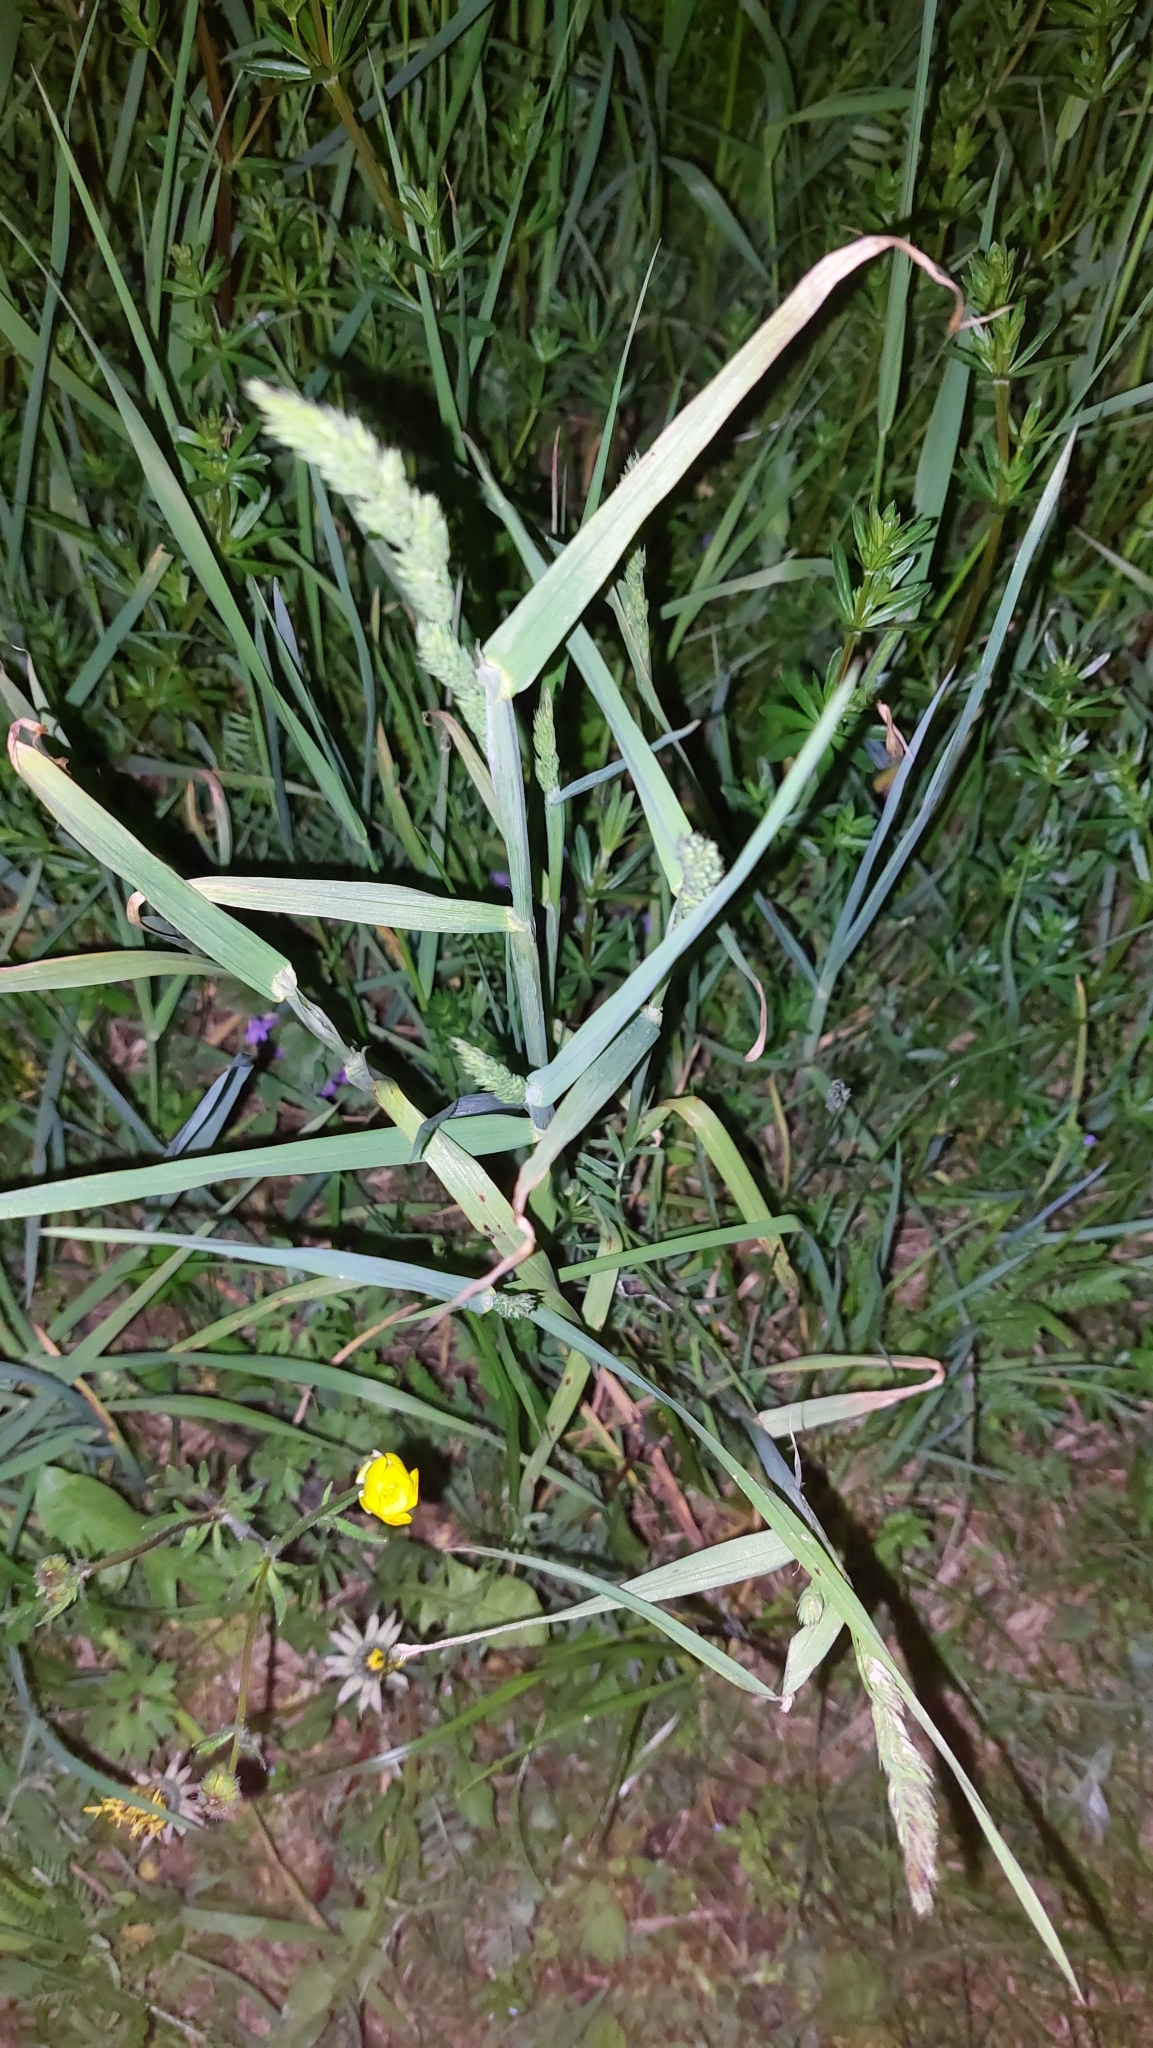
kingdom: Plantae
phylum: Tracheophyta
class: Liliopsida
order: Poales
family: Poaceae
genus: Dactylis
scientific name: Dactylis glomerata
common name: Orchardgrass
